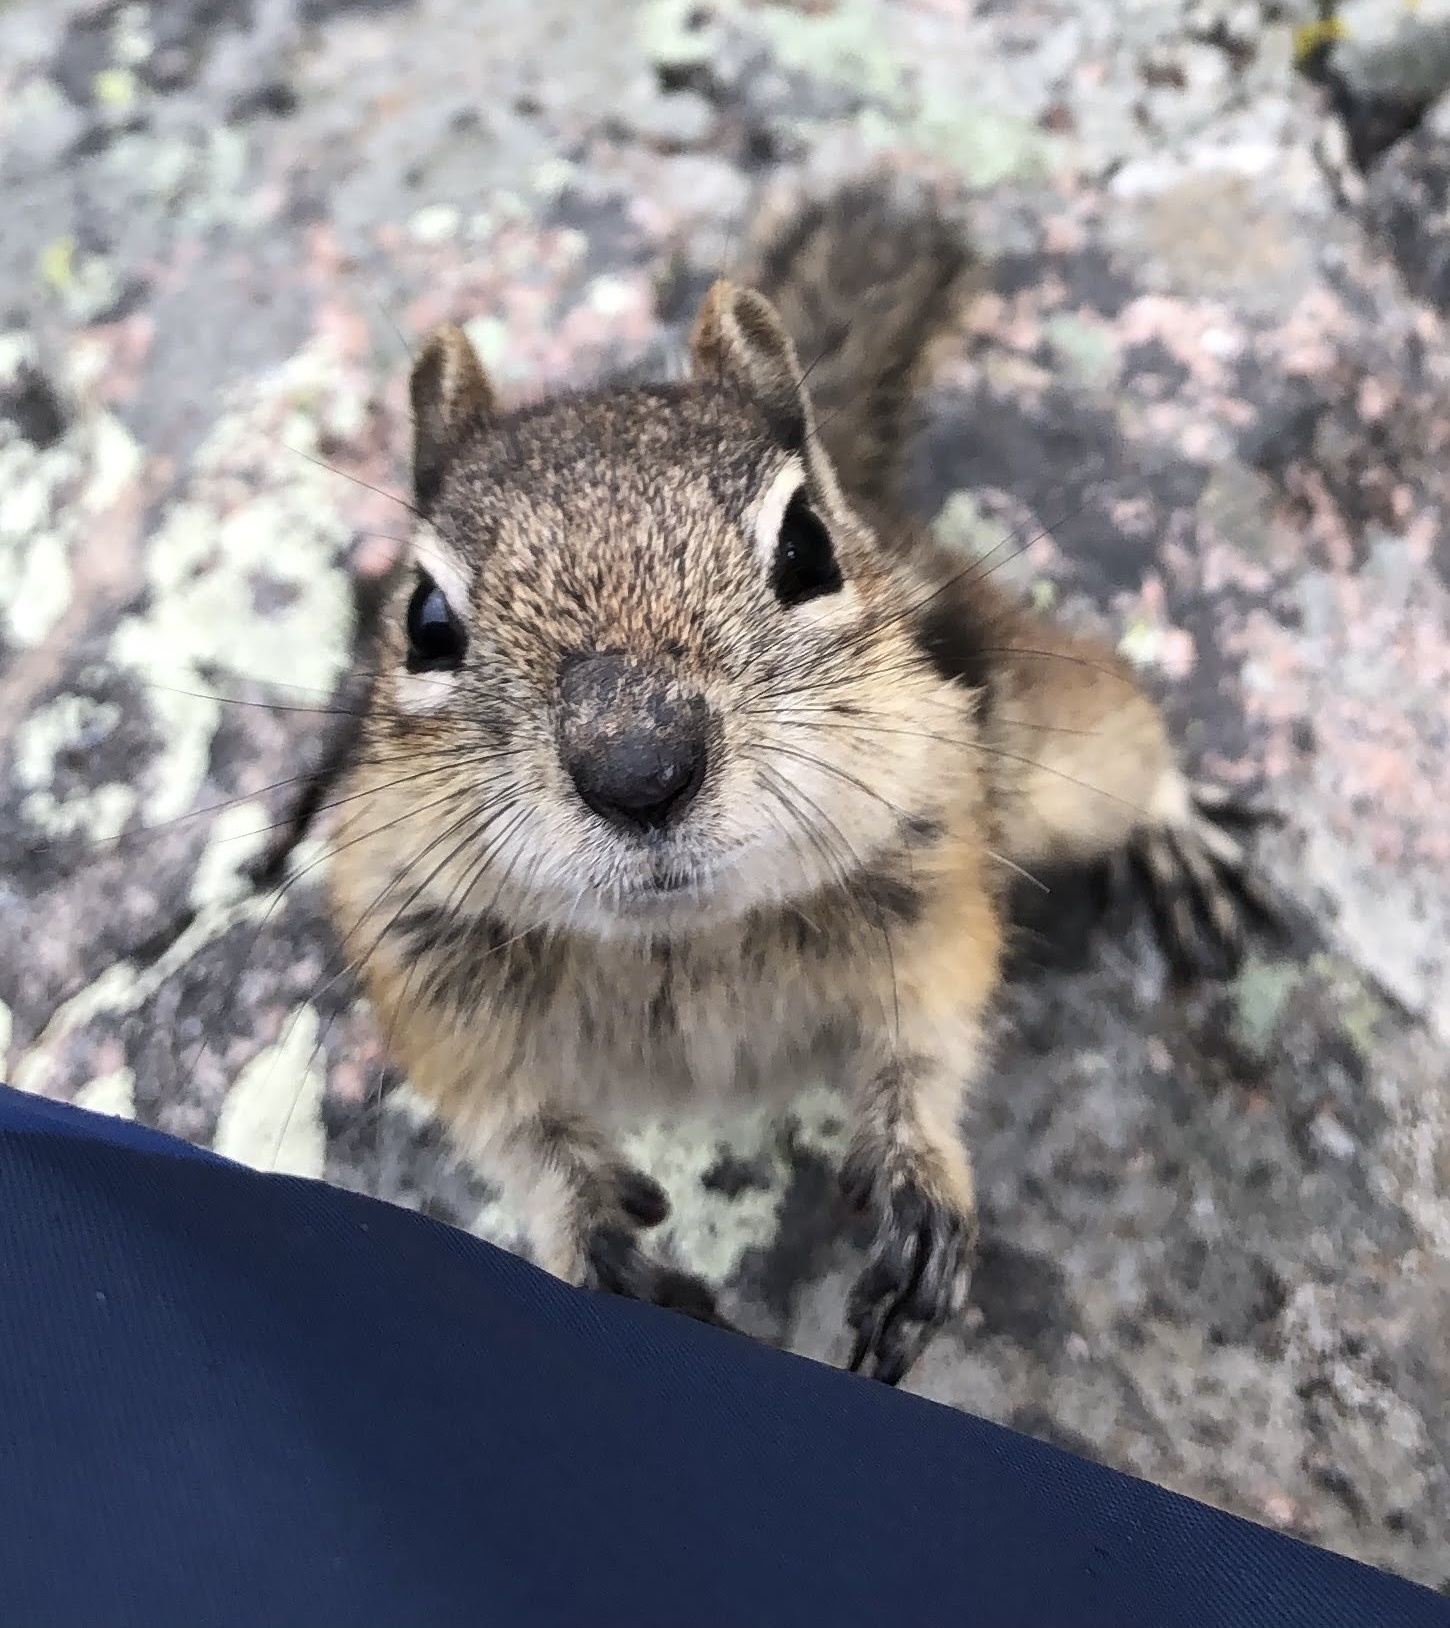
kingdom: Animalia
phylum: Chordata
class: Mammalia
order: Rodentia
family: Sciuridae
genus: Callospermophilus
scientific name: Callospermophilus lateralis
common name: Golden-mantled ground squirrel
